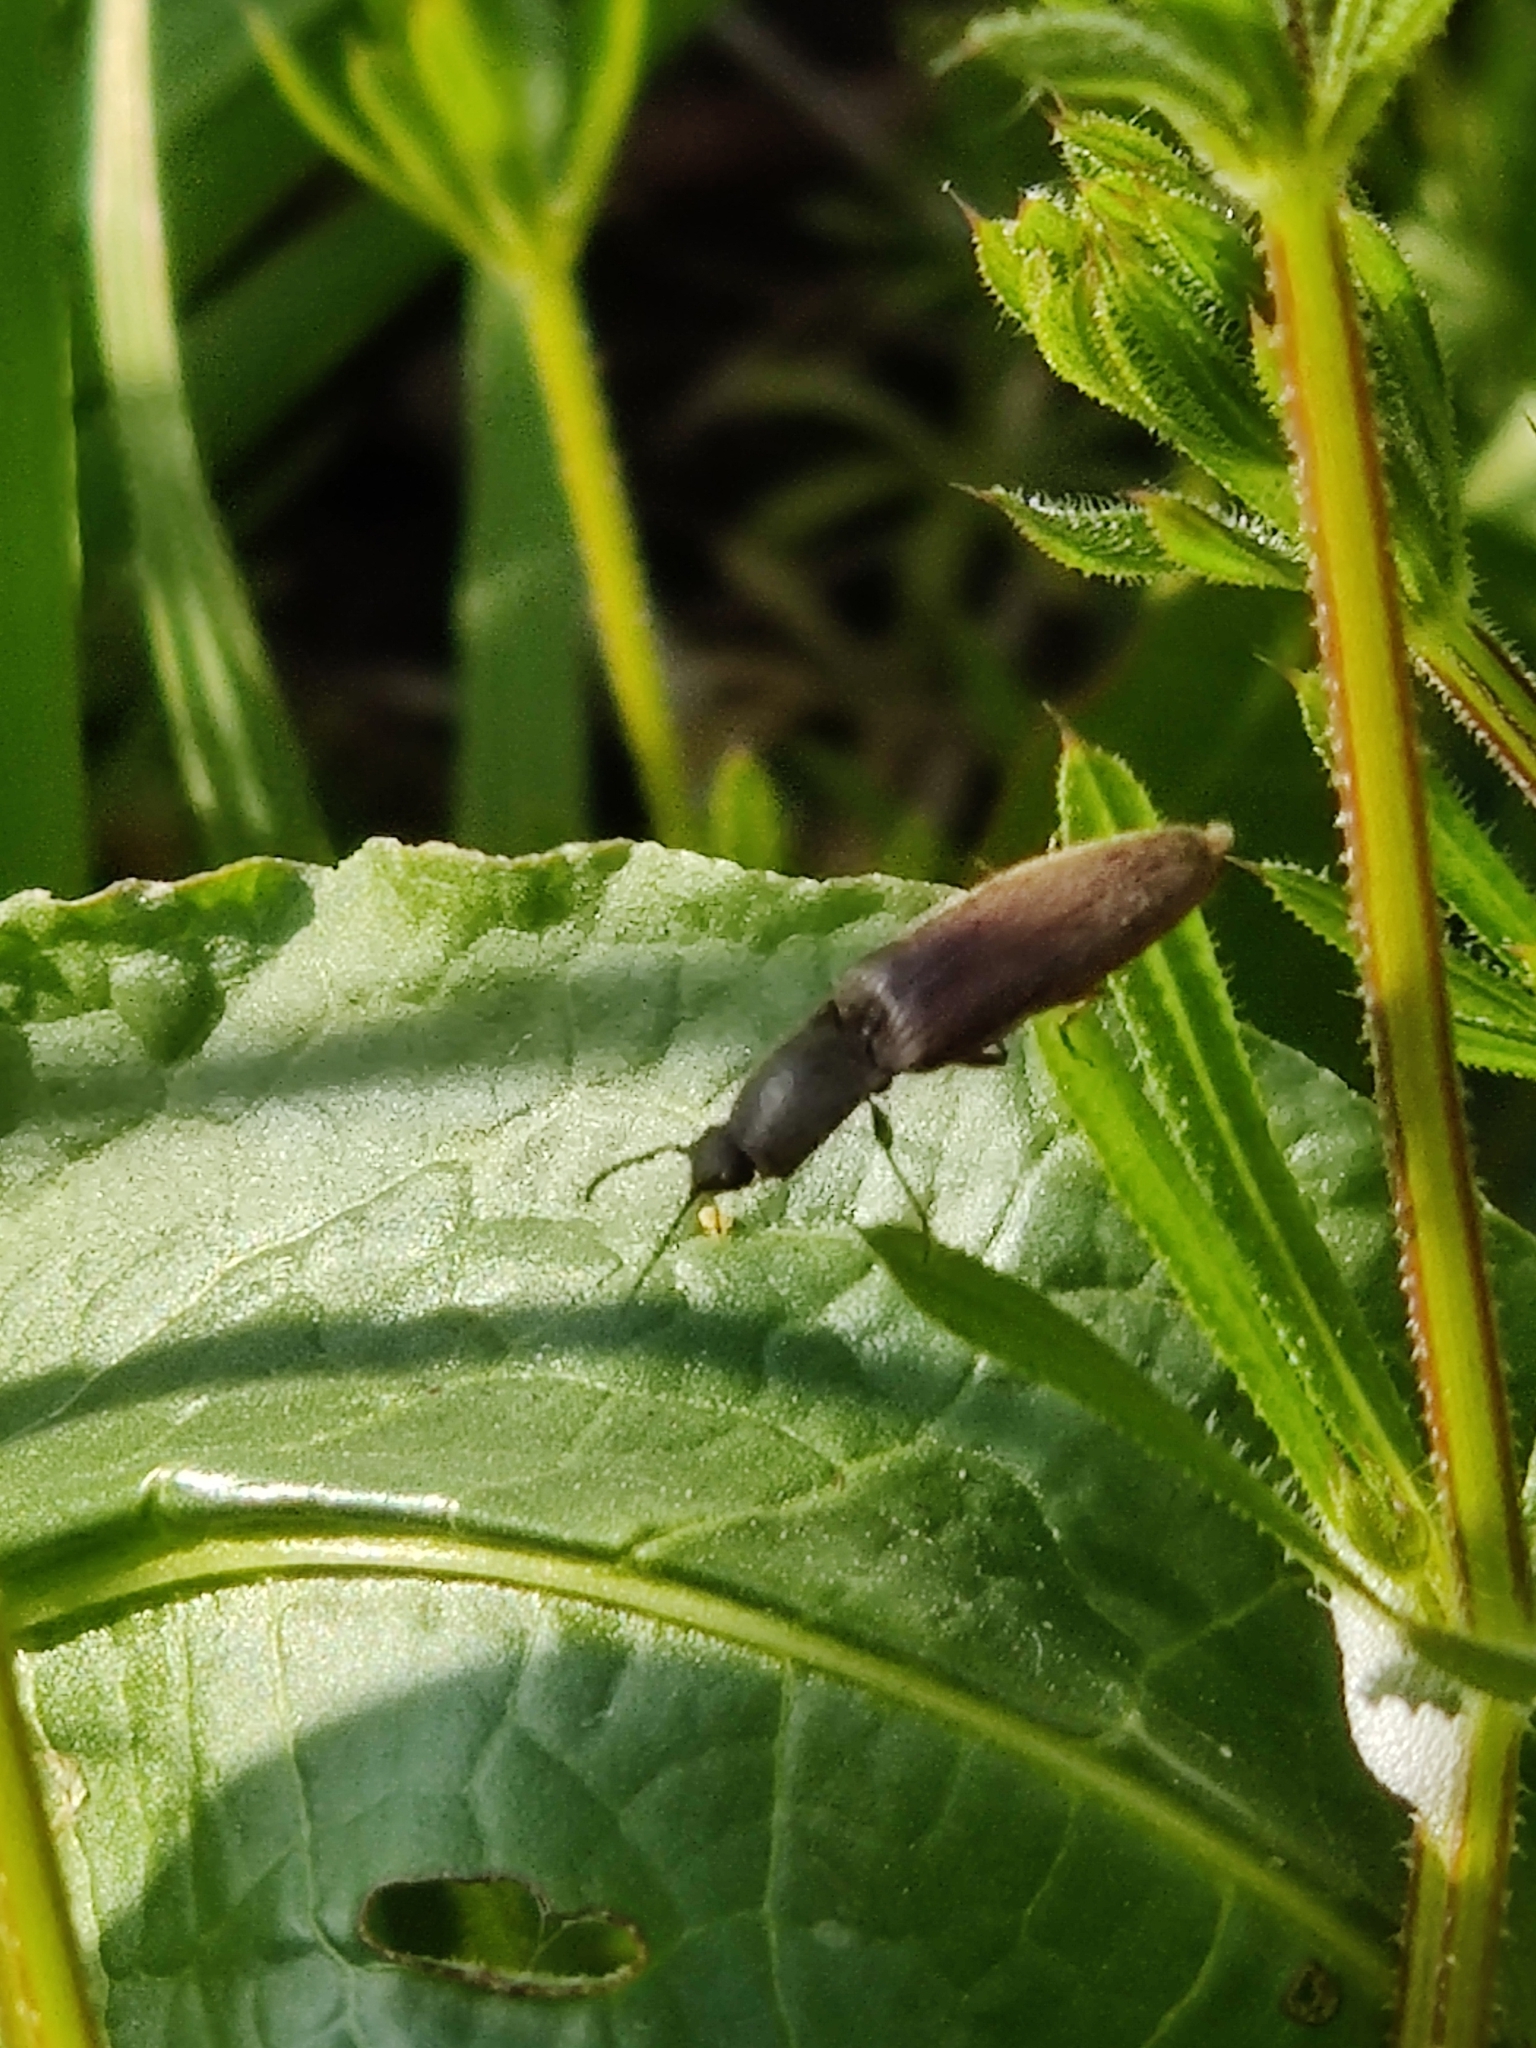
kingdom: Animalia
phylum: Arthropoda
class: Insecta
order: Coleoptera
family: Elateridae
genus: Athous
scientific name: Athous haemorrhoidalis
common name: Red-brown click beetle
